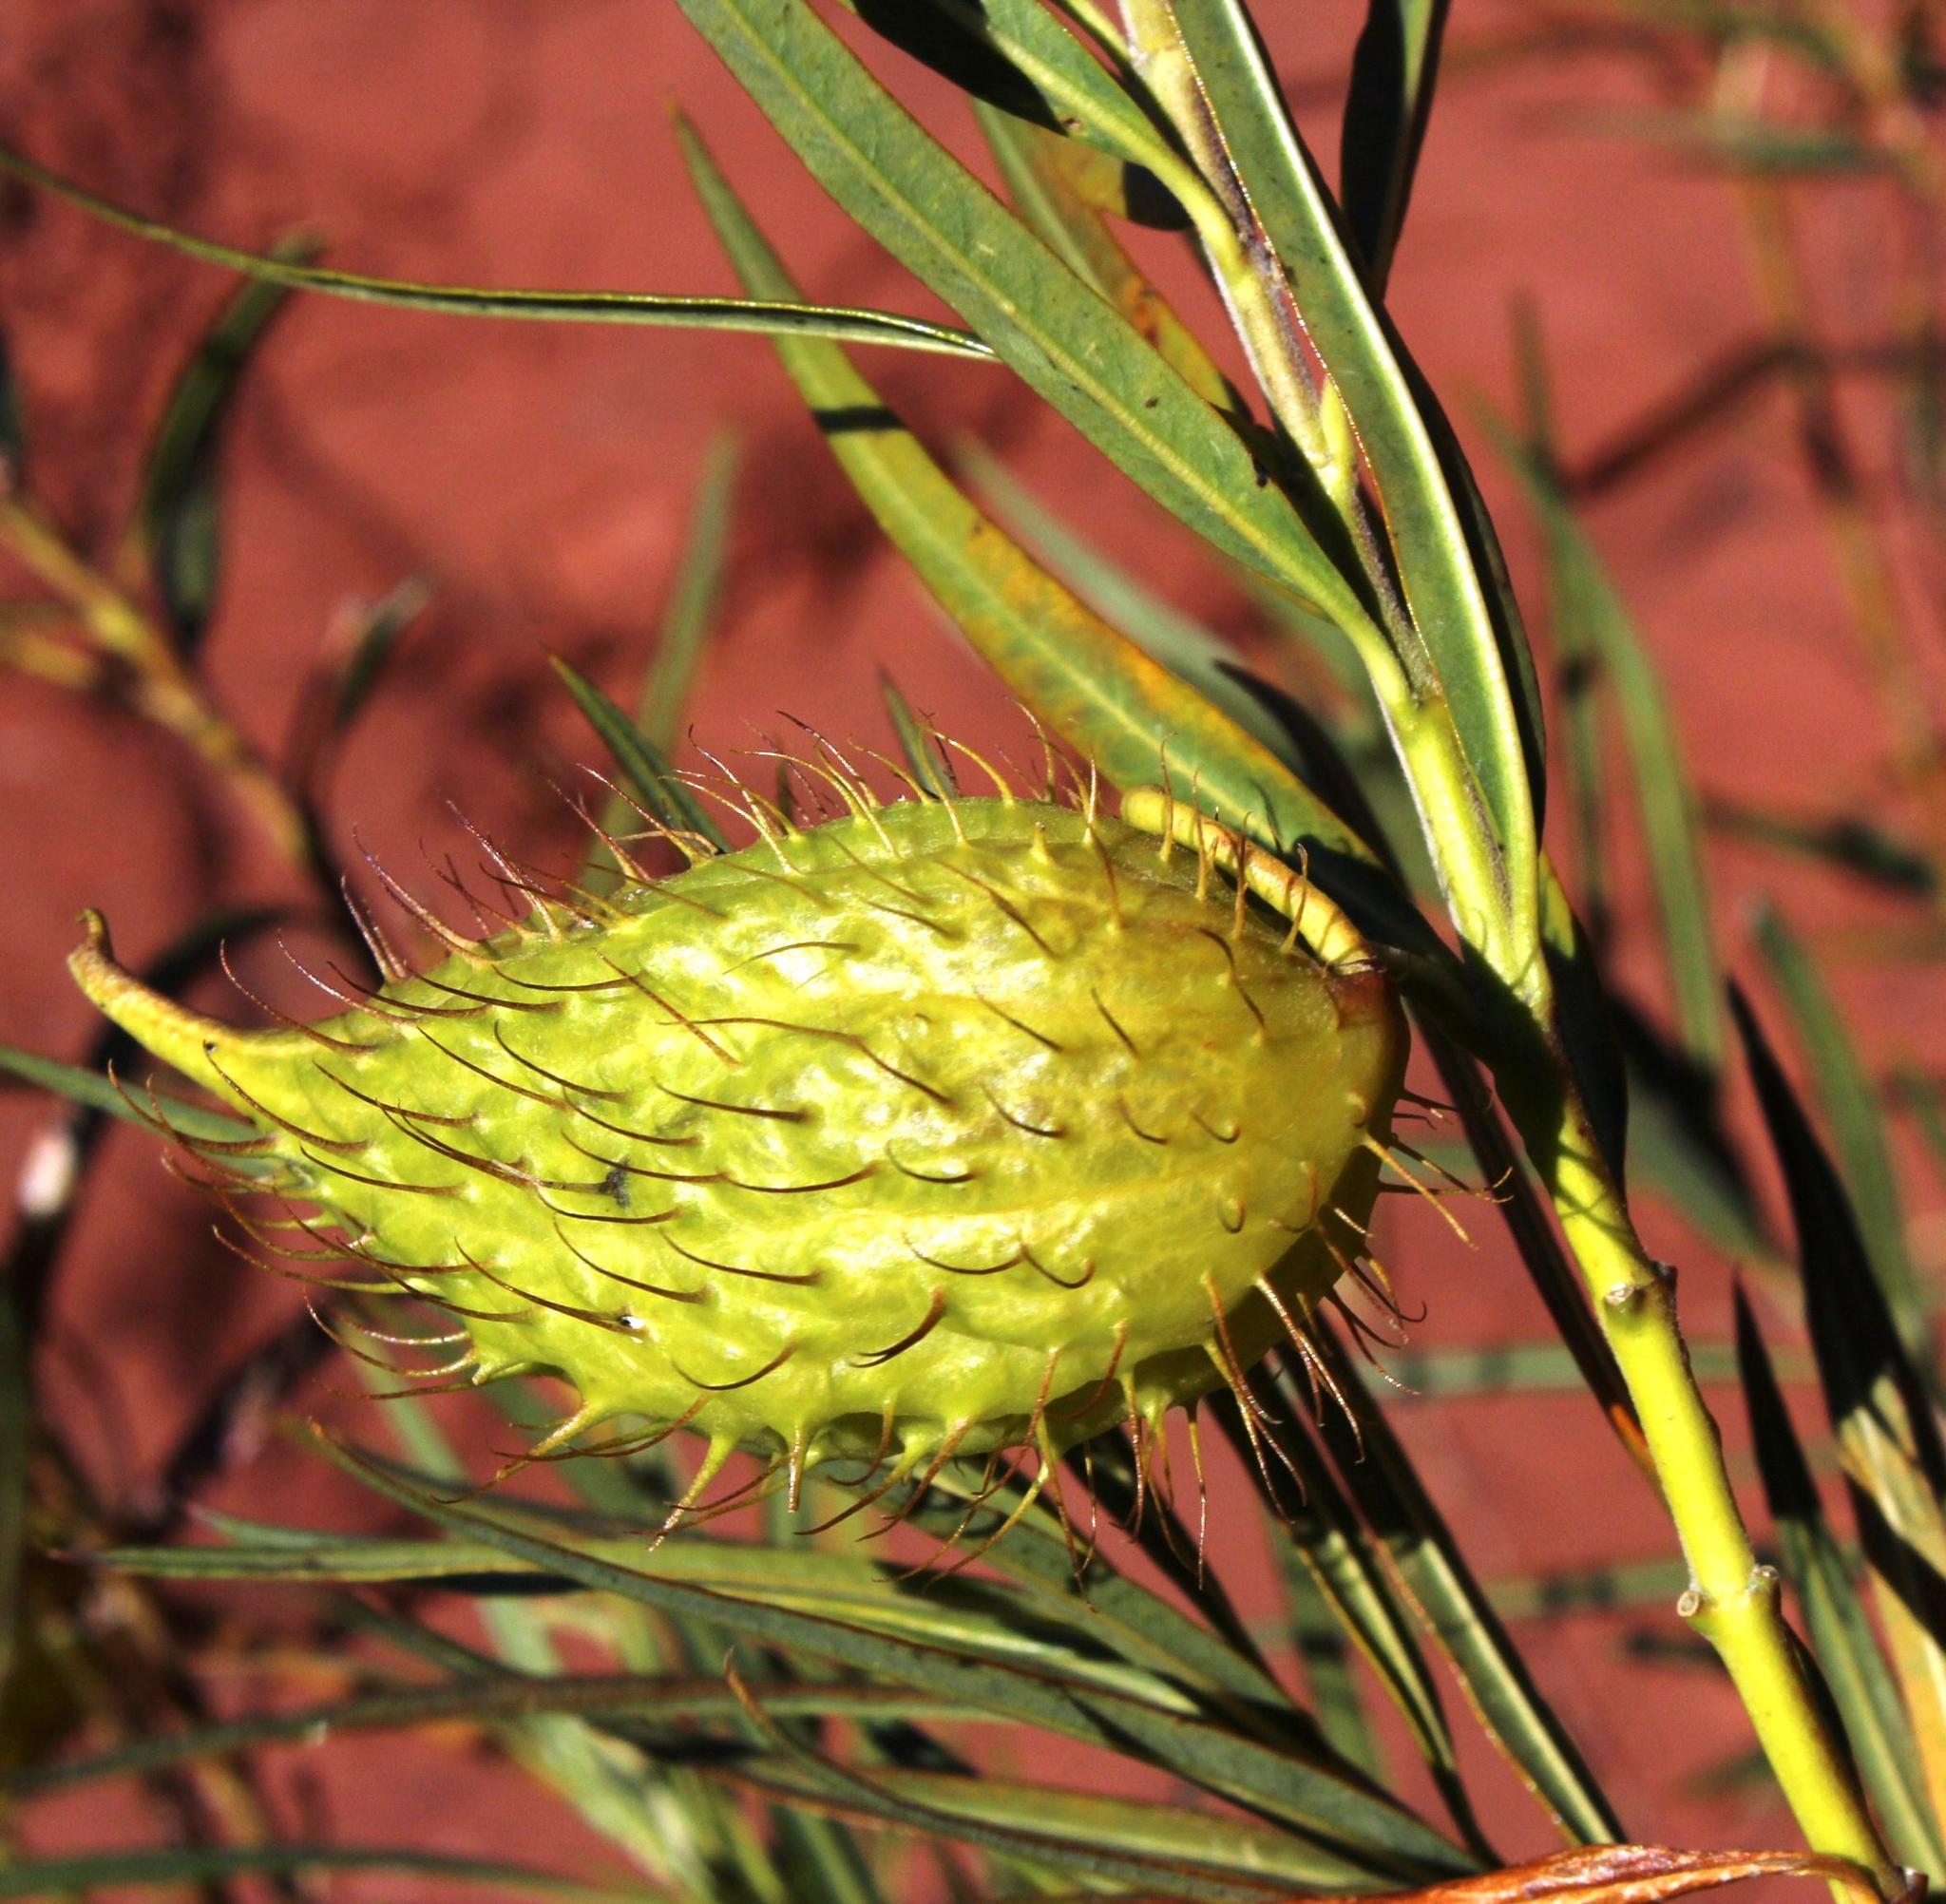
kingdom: Plantae
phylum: Tracheophyta
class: Magnoliopsida
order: Gentianales
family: Apocynaceae
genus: Gomphocarpus
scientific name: Gomphocarpus fruticosus
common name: Milkweed
